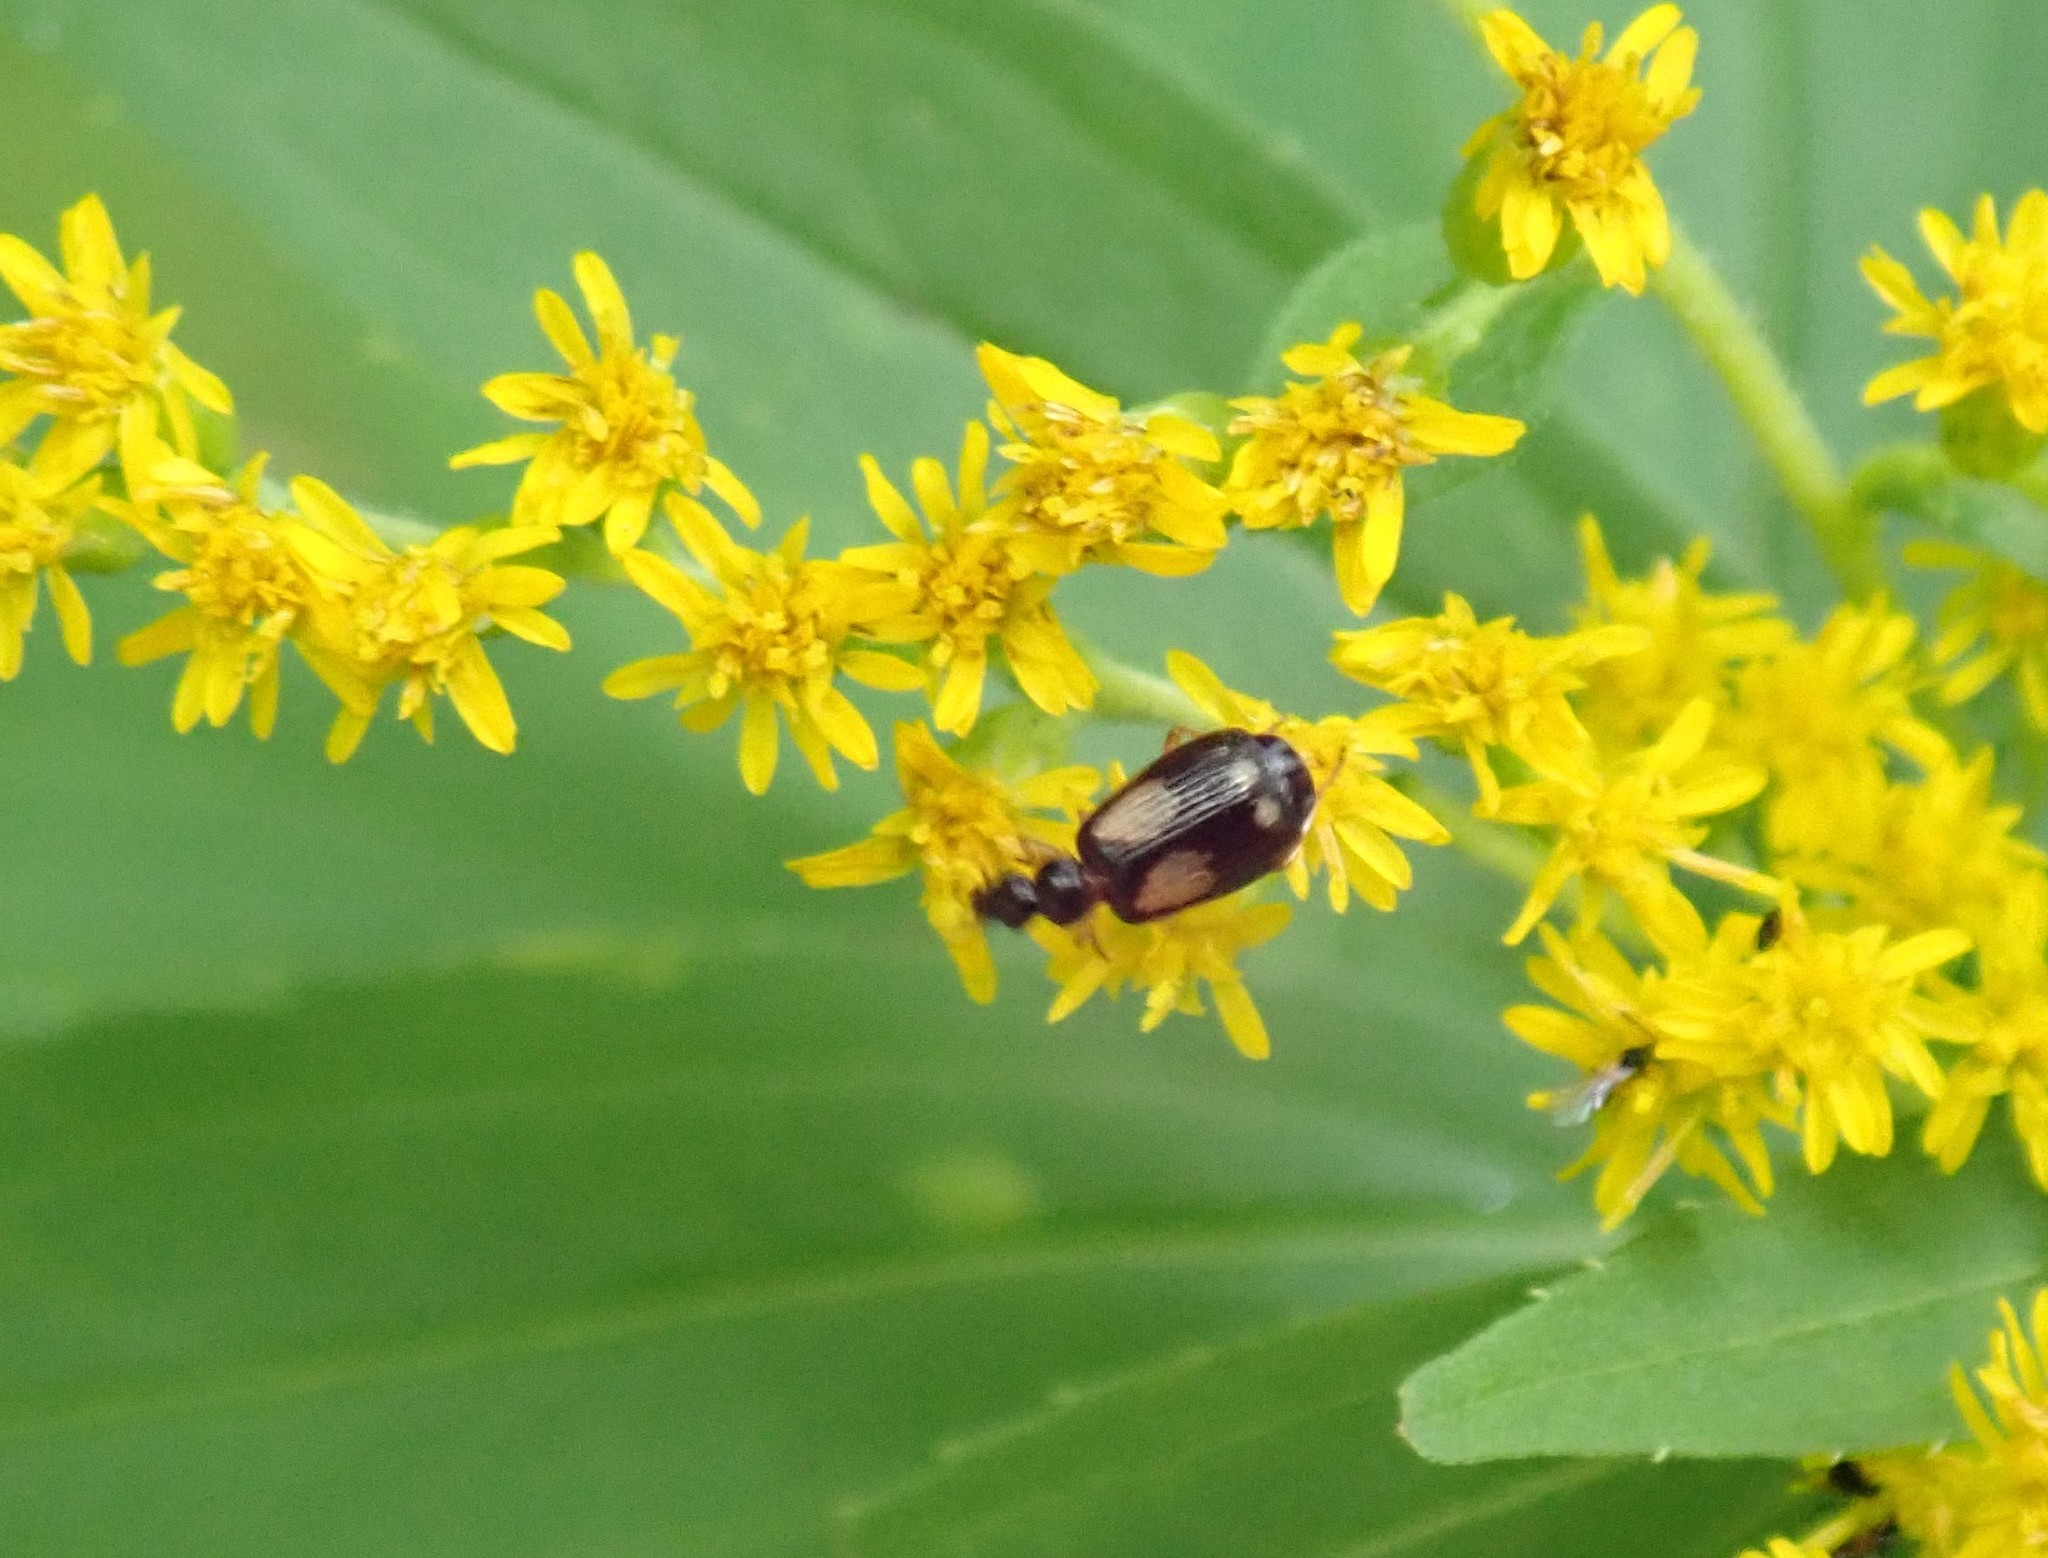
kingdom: Animalia
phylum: Arthropoda
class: Insecta
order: Coleoptera
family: Carabidae
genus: Lebia
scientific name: Lebia ornata
